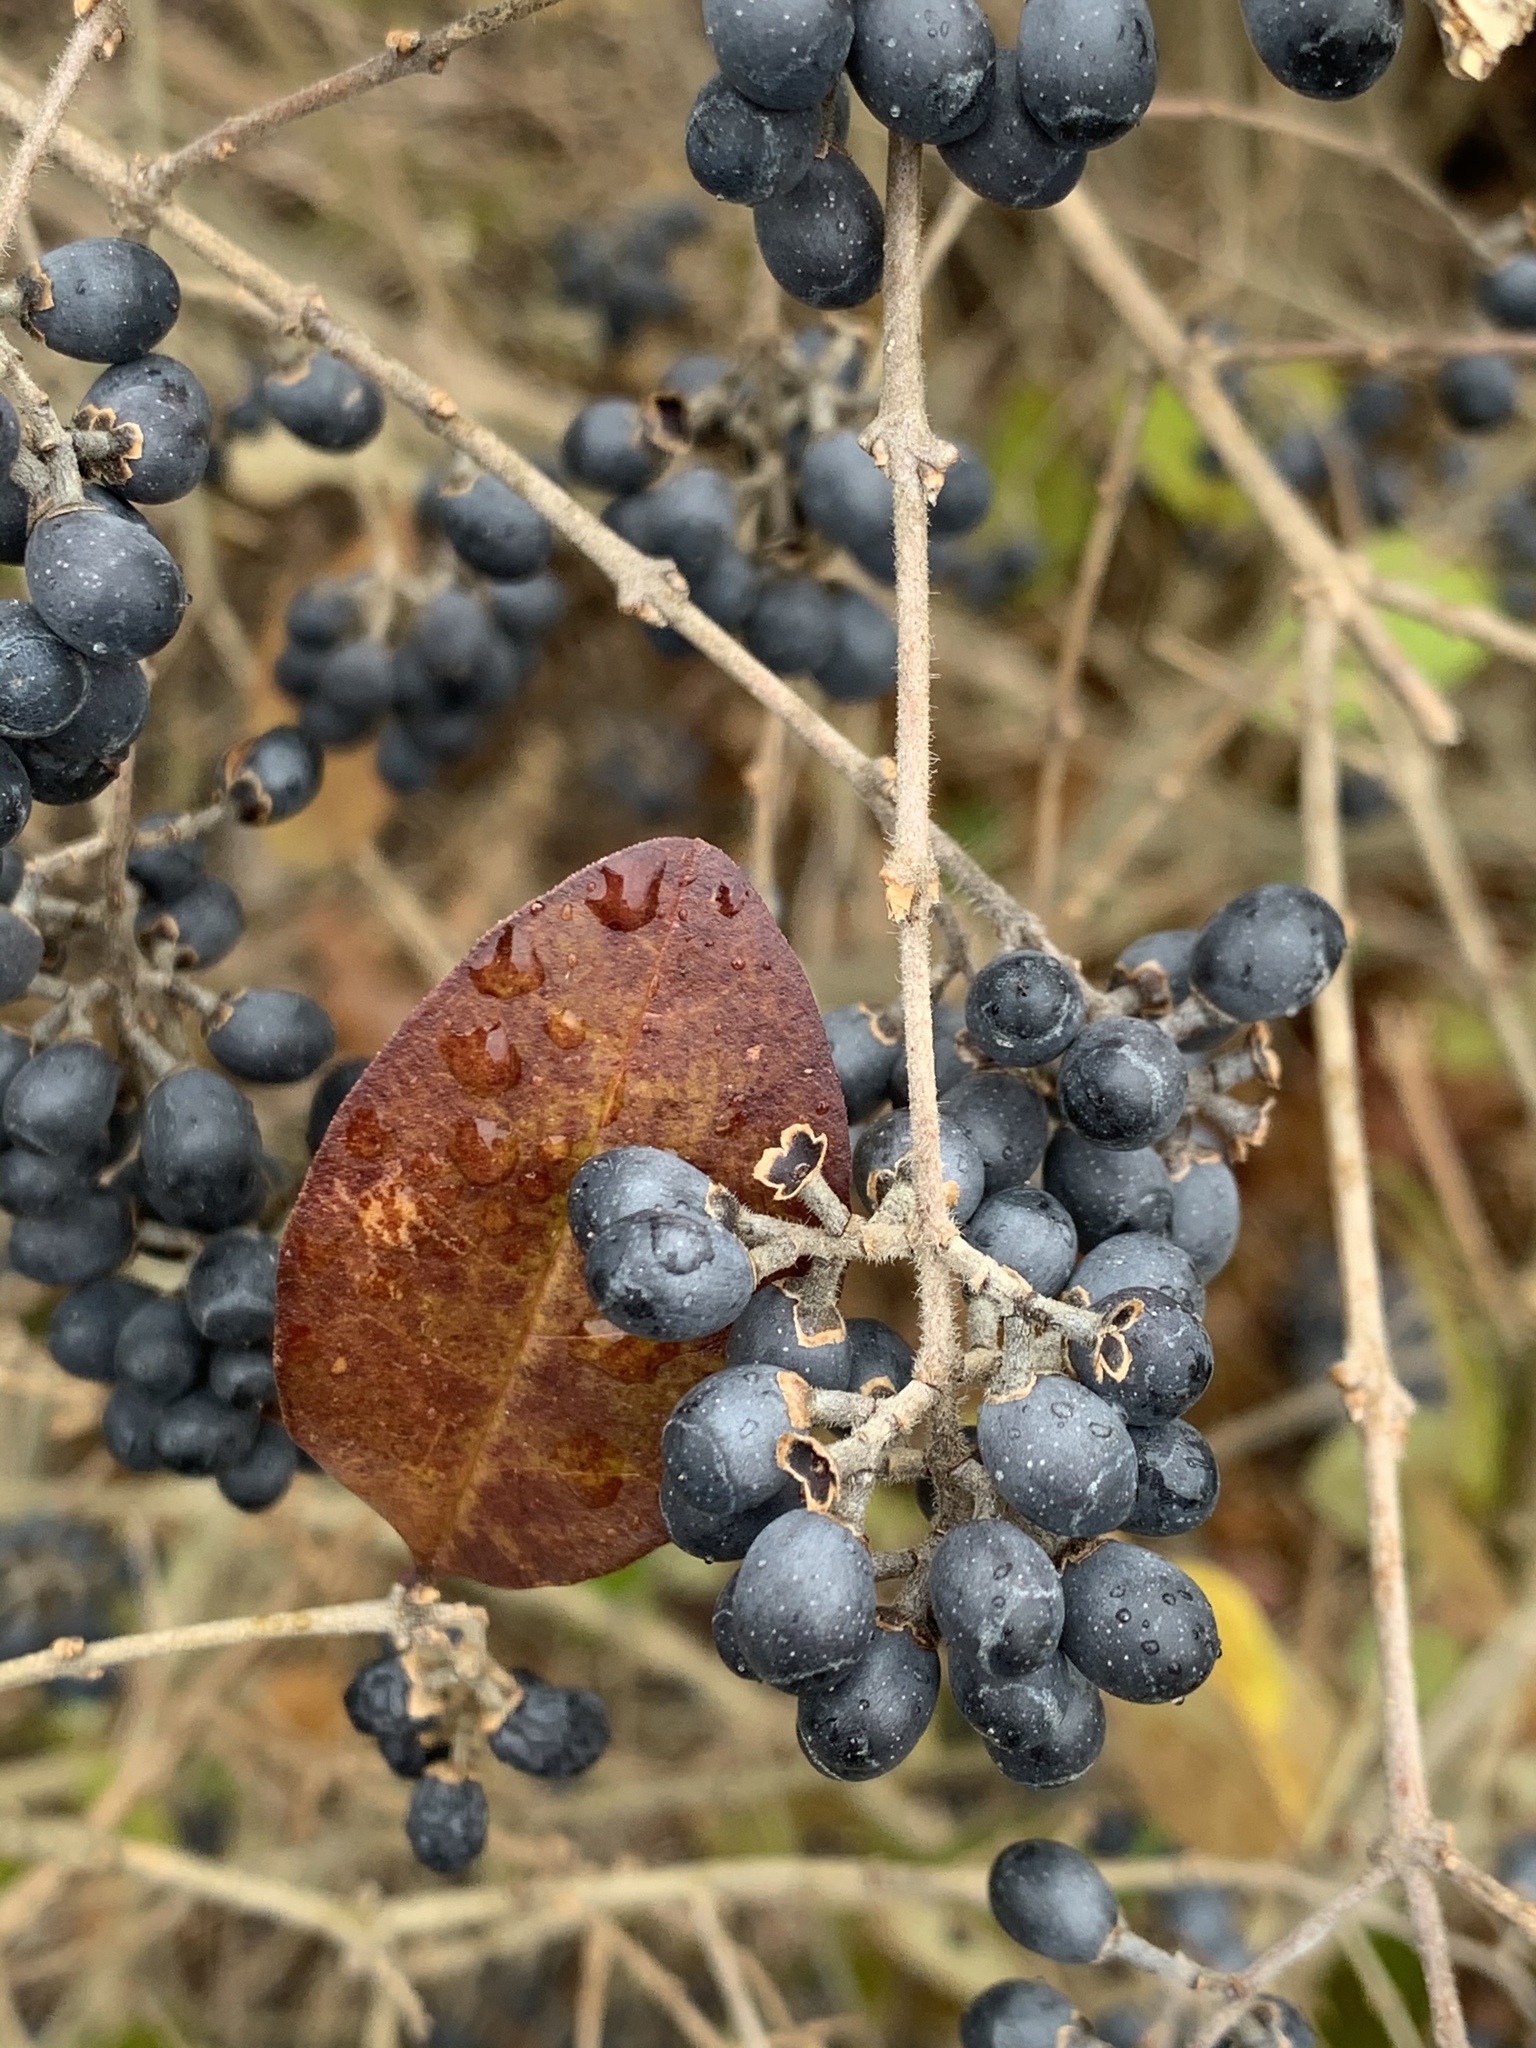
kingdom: Plantae
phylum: Tracheophyta
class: Magnoliopsida
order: Lamiales
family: Oleaceae
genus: Ligustrum
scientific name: Ligustrum obtusifolium
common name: Border privet
